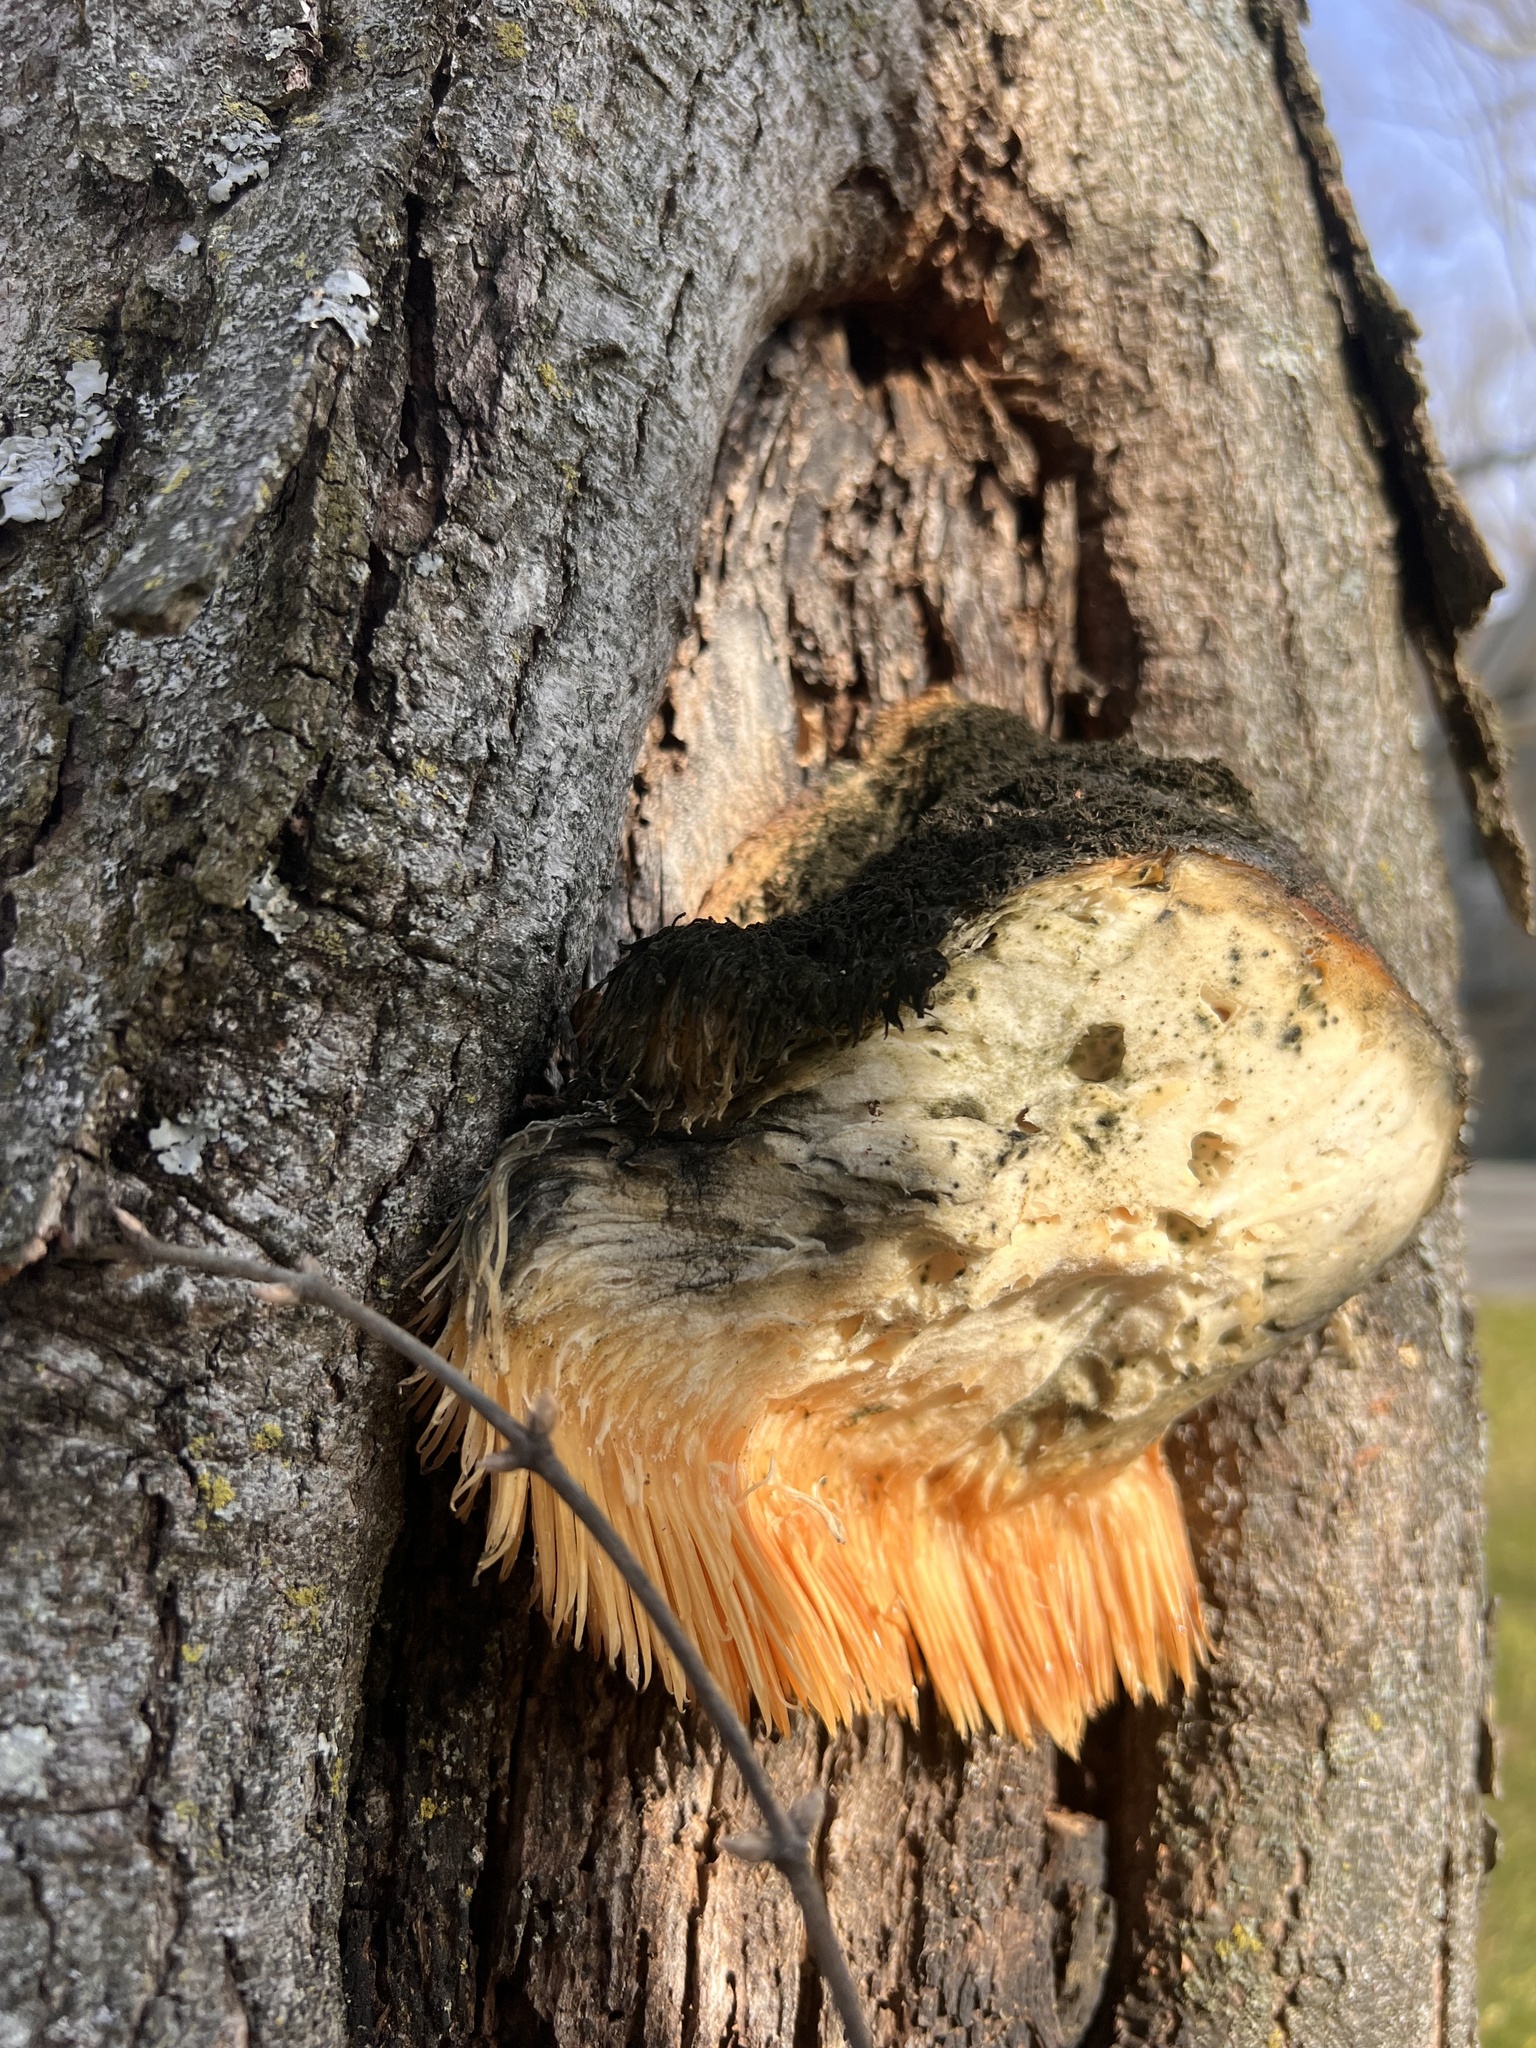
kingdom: Fungi
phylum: Basidiomycota
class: Agaricomycetes
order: Russulales
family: Hericiaceae
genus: Hericium
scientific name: Hericium erinaceus
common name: Bearded tooth
